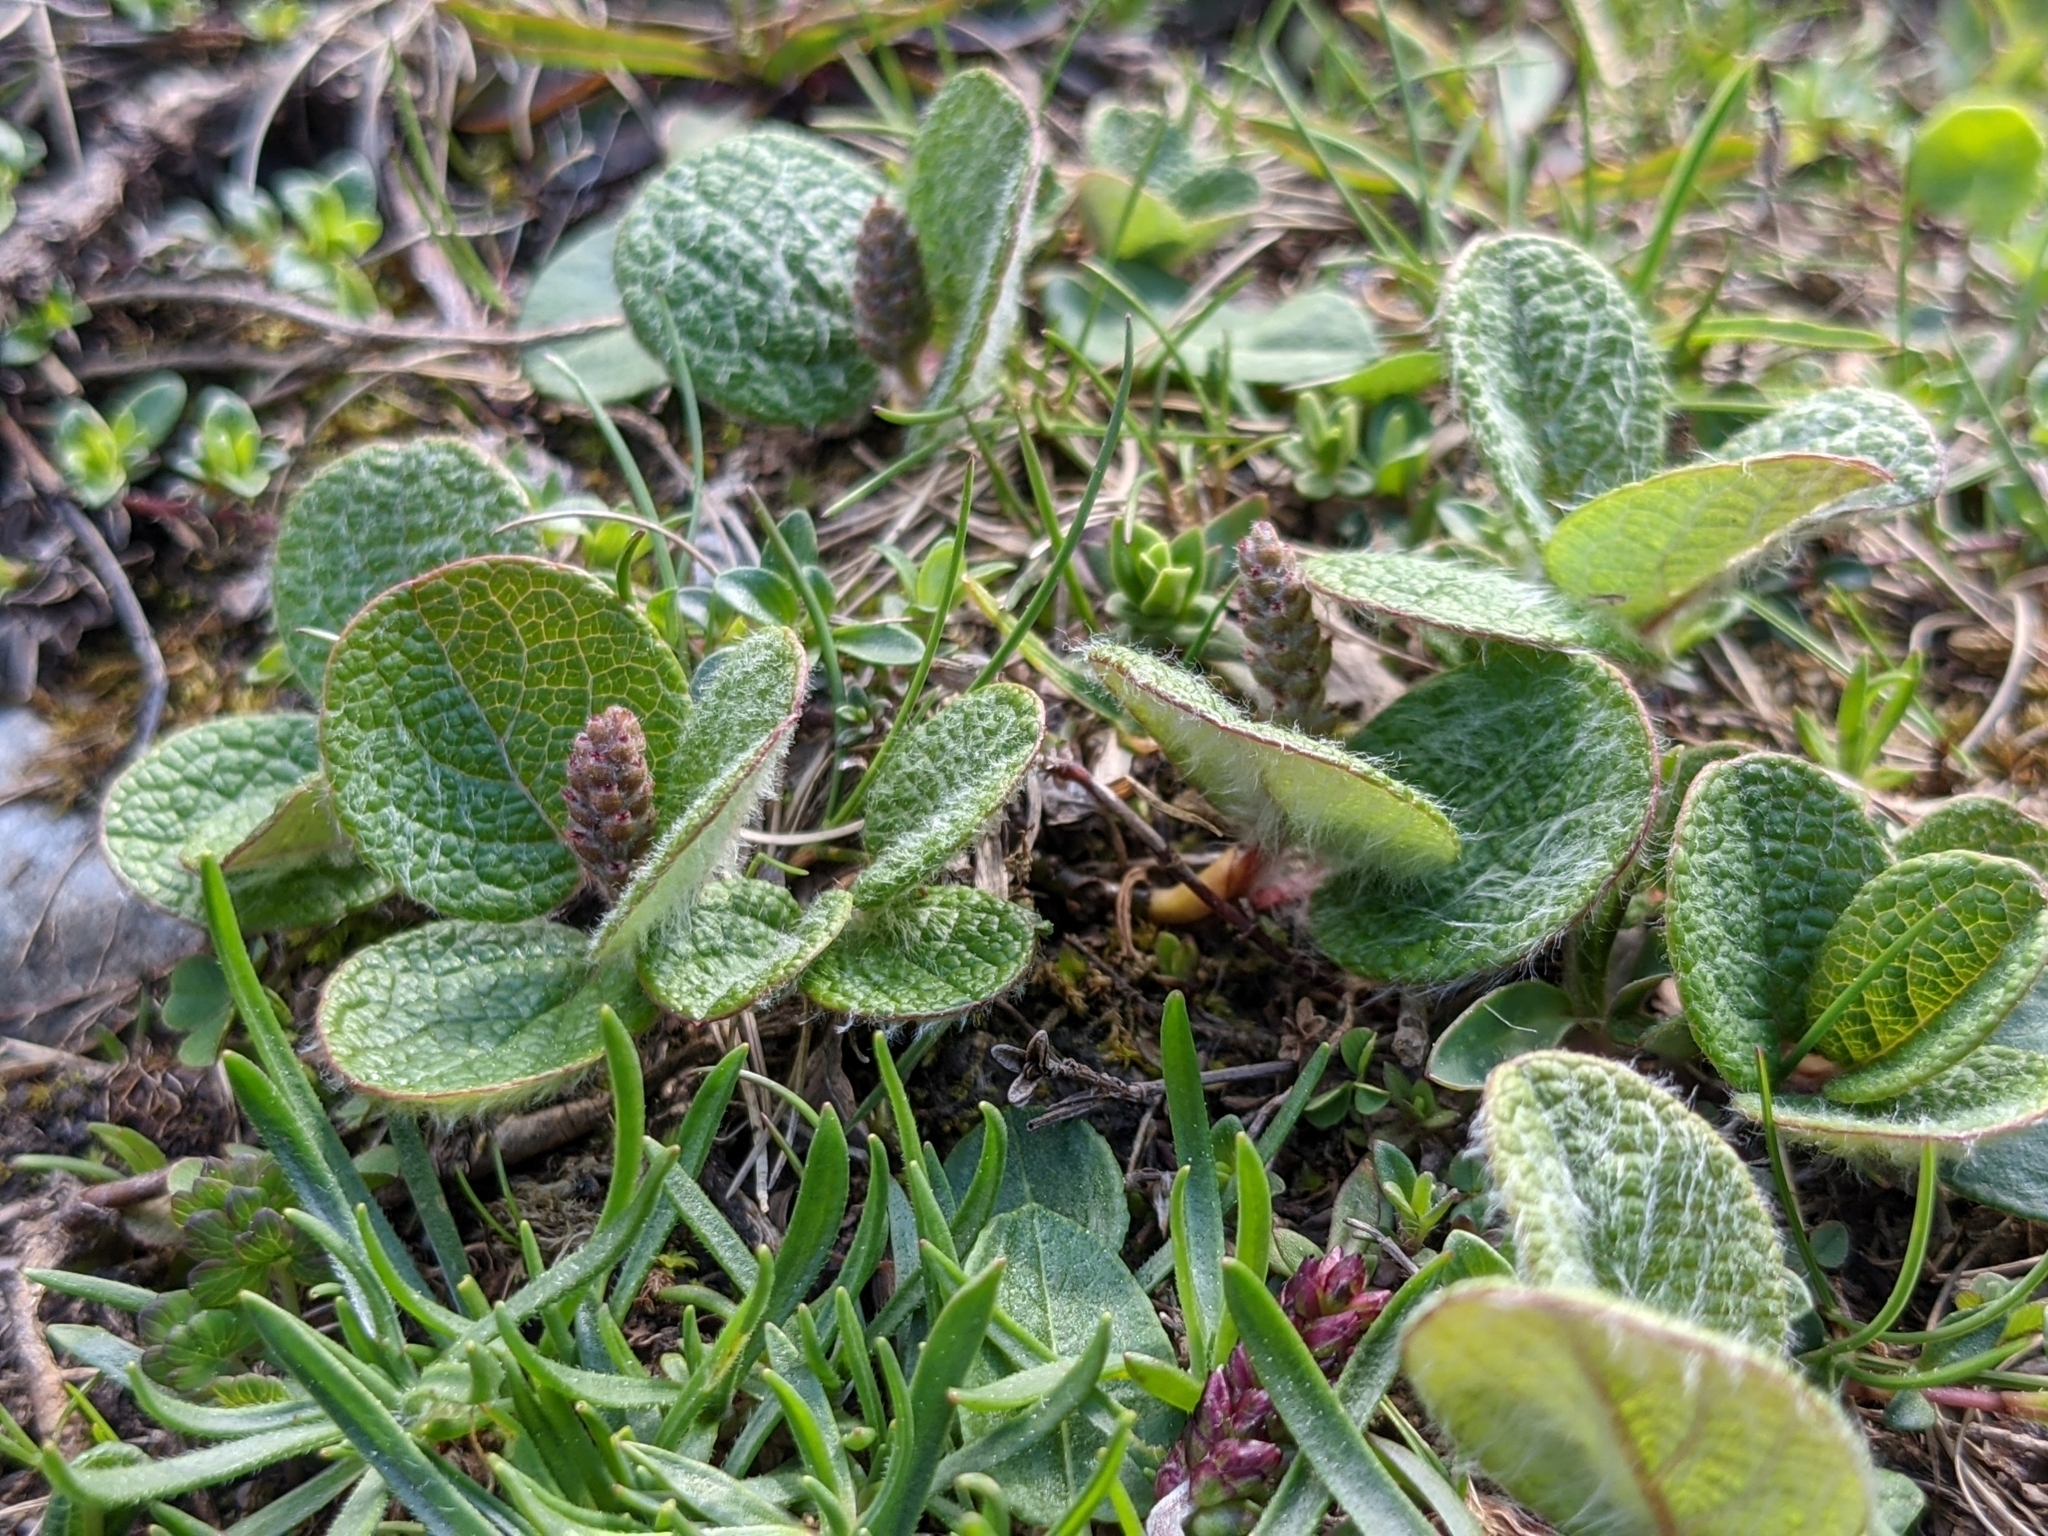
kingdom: Plantae
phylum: Tracheophyta
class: Magnoliopsida
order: Malpighiales
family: Salicaceae
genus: Salix
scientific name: Salix reticulata
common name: Net-leaved willow
